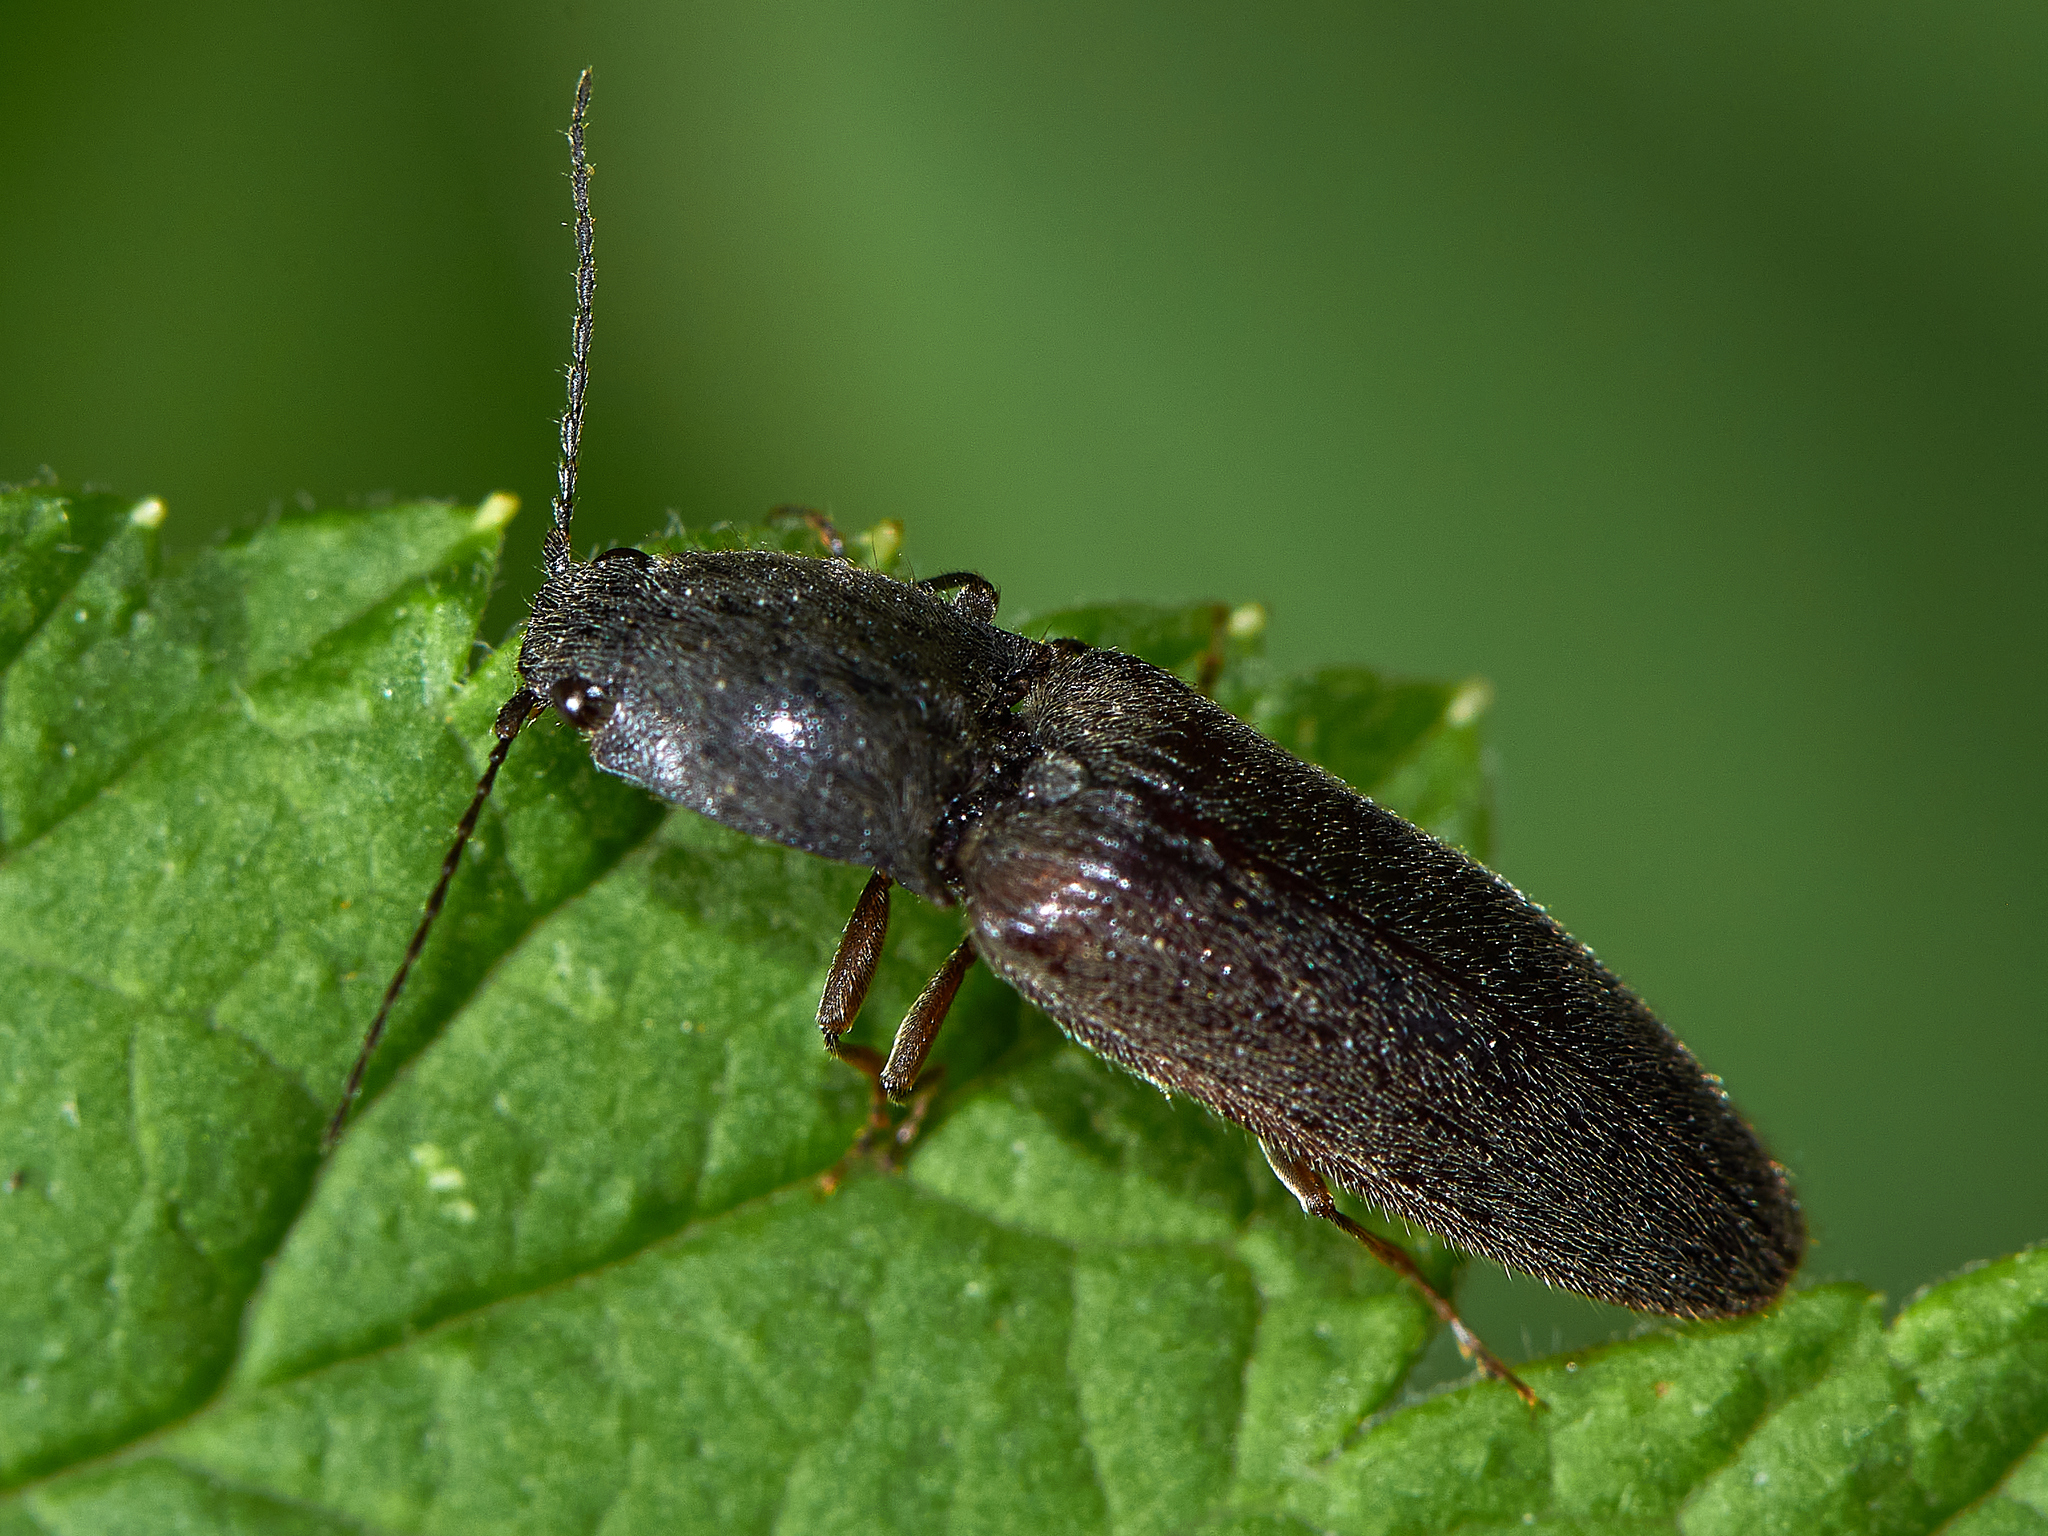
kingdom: Animalia
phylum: Arthropoda
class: Insecta
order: Coleoptera
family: Elateridae
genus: Athous
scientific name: Athous haemorrhoidalis
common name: Red-brown click beetle
